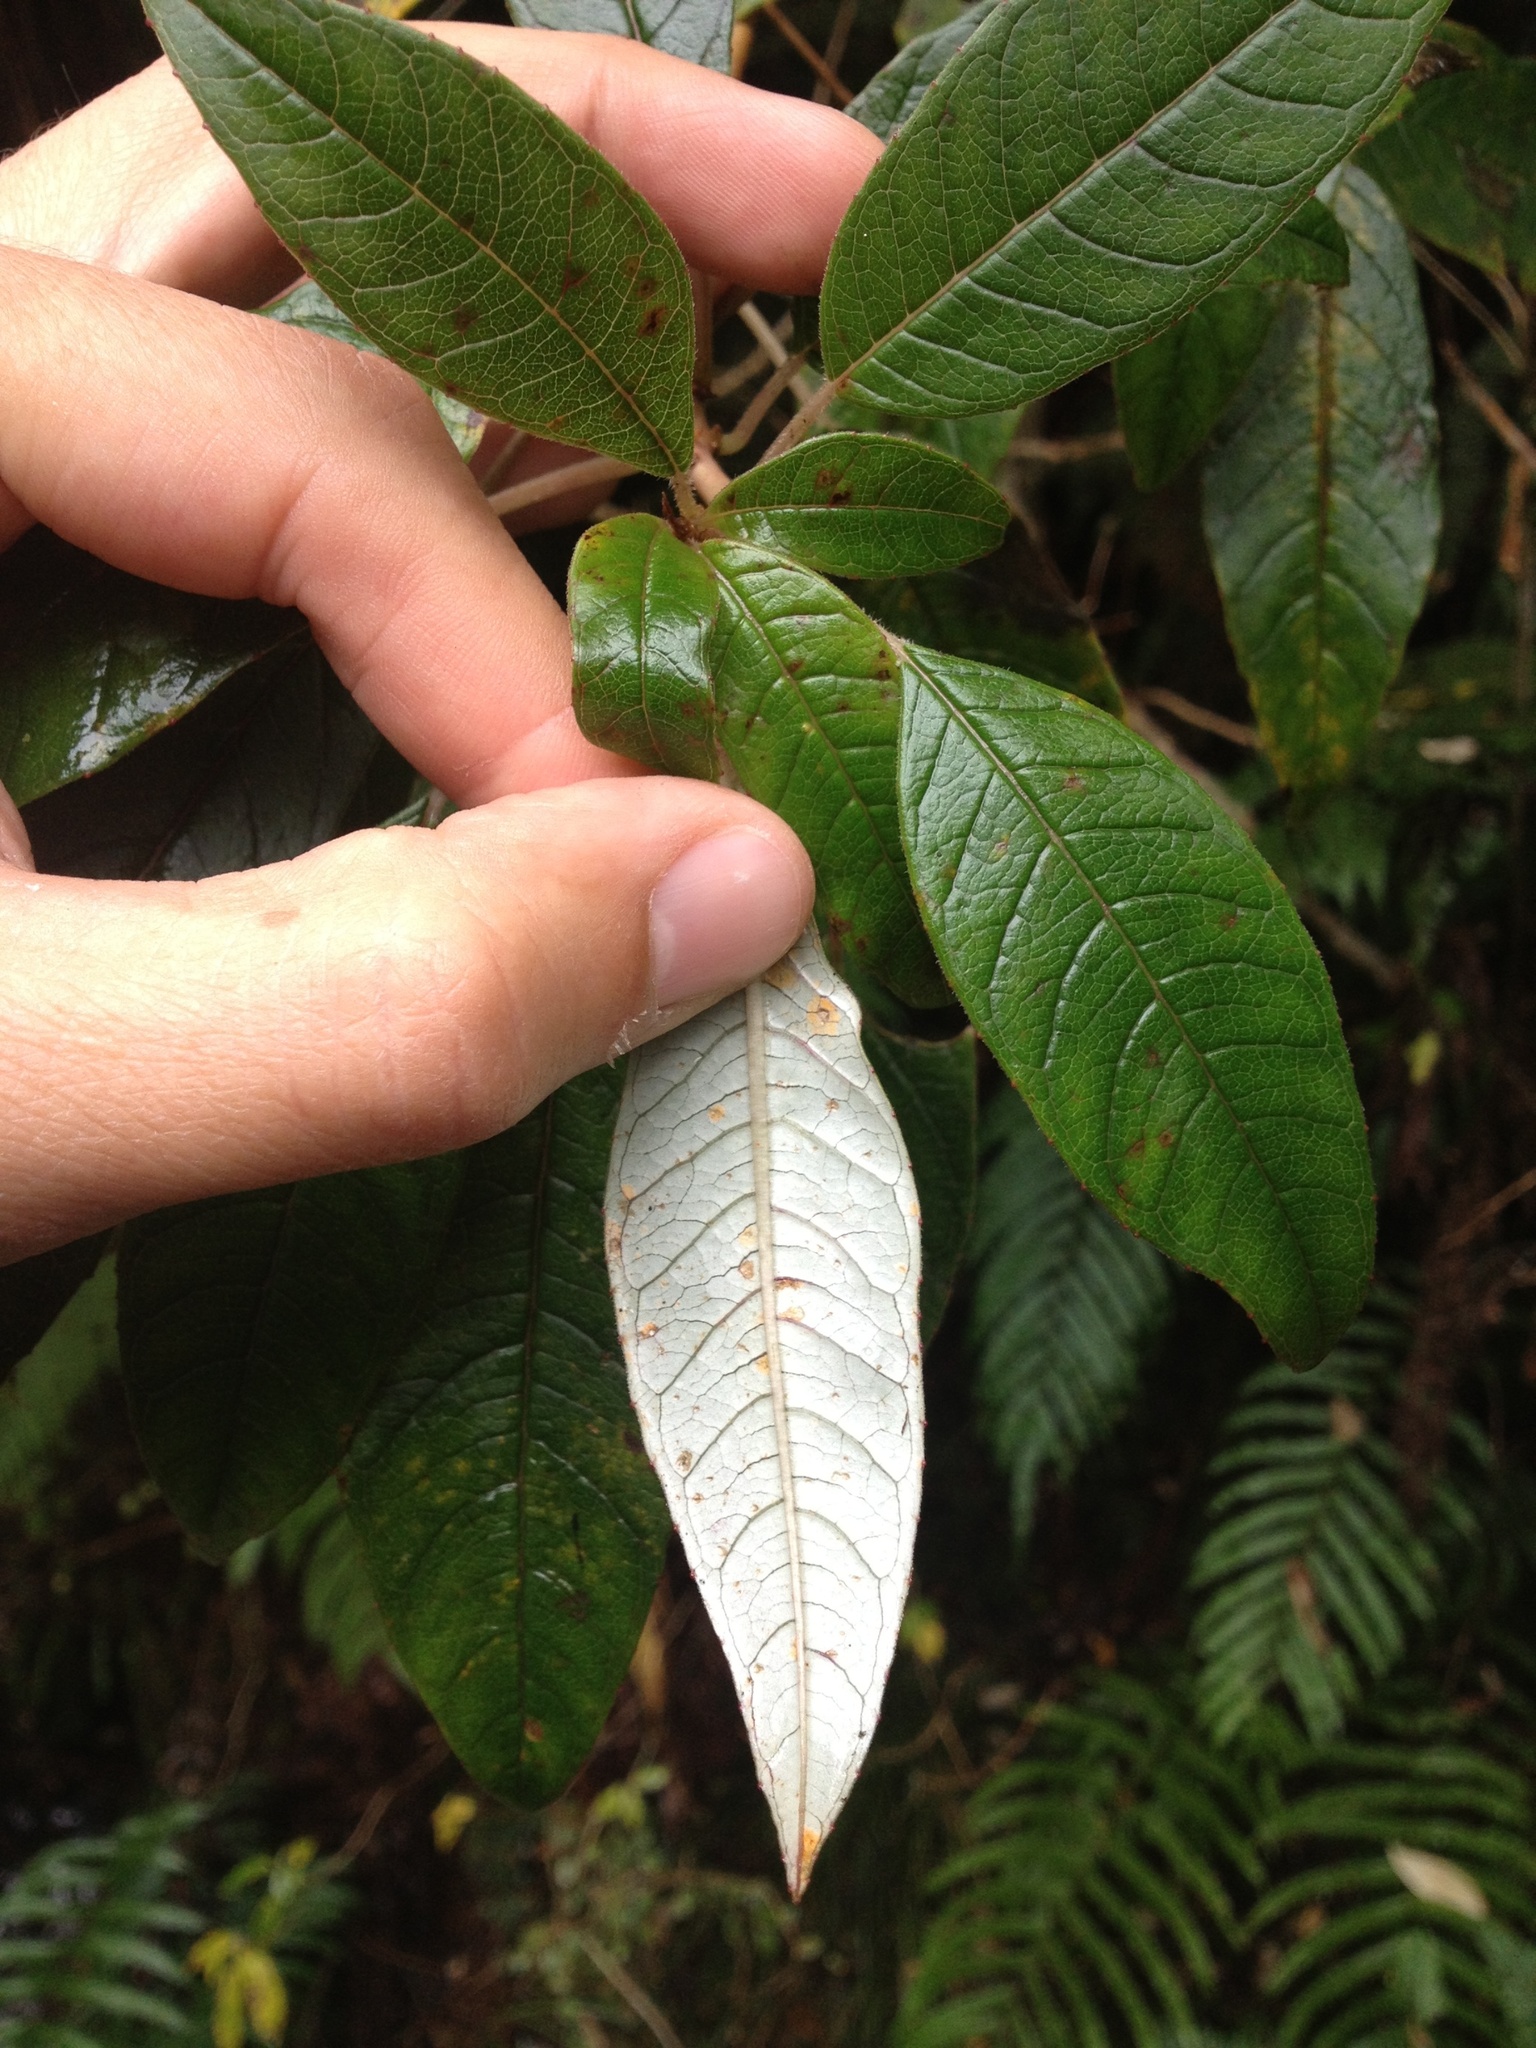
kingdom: Fungi
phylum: Basidiomycota
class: Pucciniomycetes
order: Pucciniales
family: Mikronegeriaceae
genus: Mikronegeria
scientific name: Mikronegeria fuchsiae
